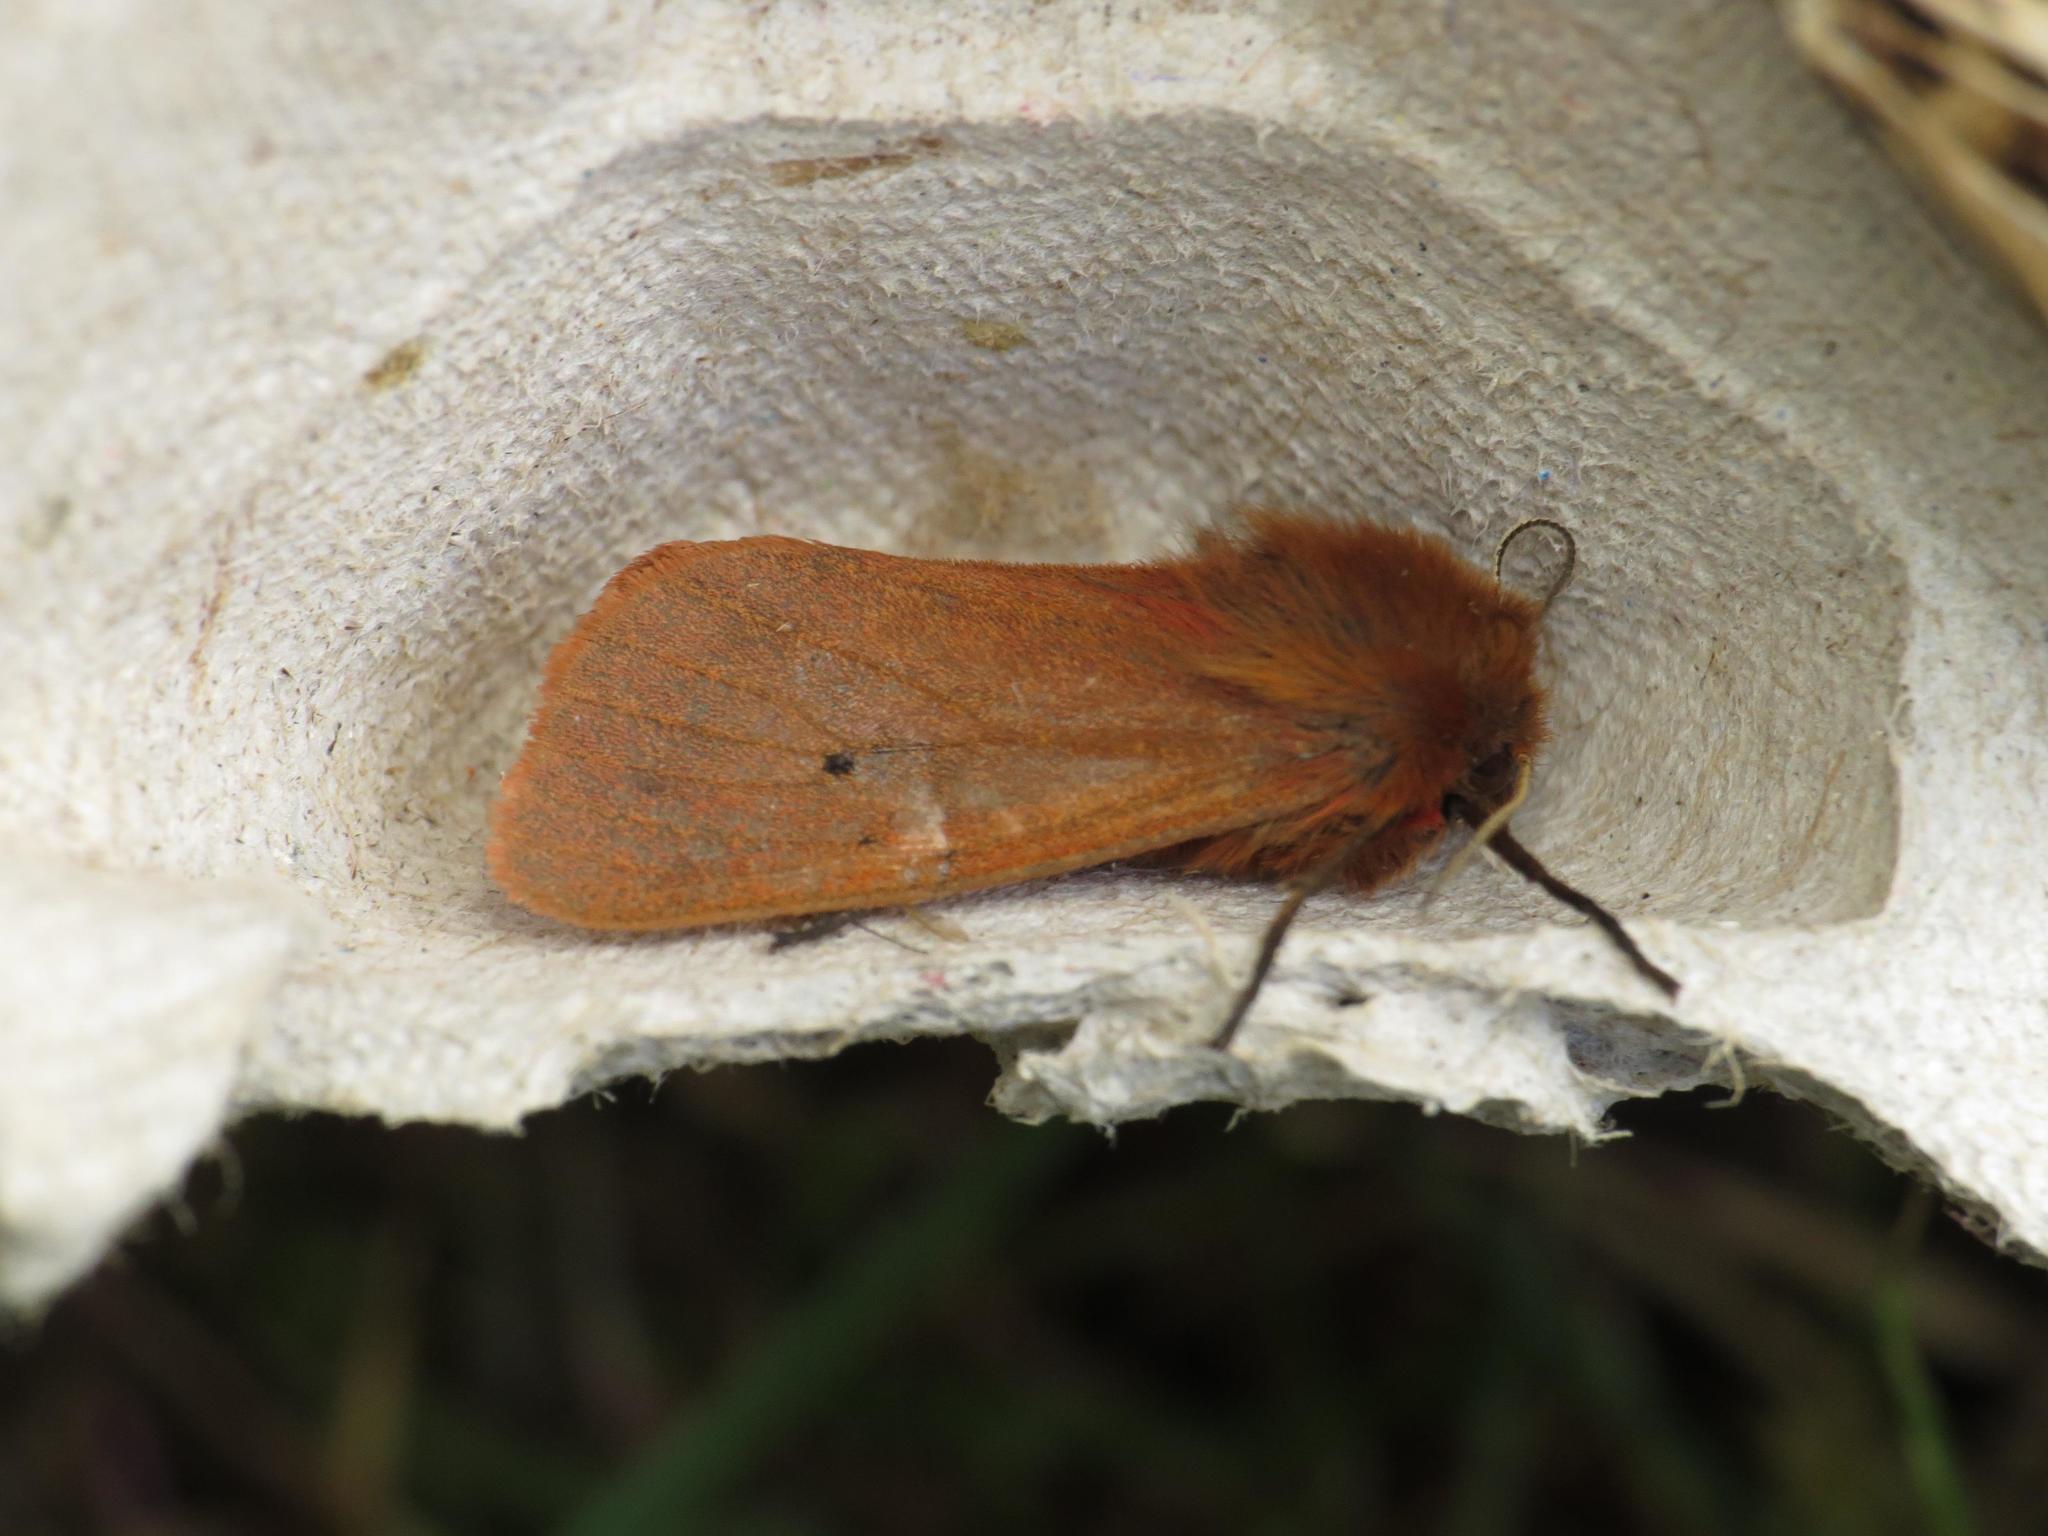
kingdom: Animalia
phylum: Arthropoda
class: Insecta
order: Lepidoptera
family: Erebidae
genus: Phragmatobia
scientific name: Phragmatobia fuliginosa
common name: Ruby tiger
